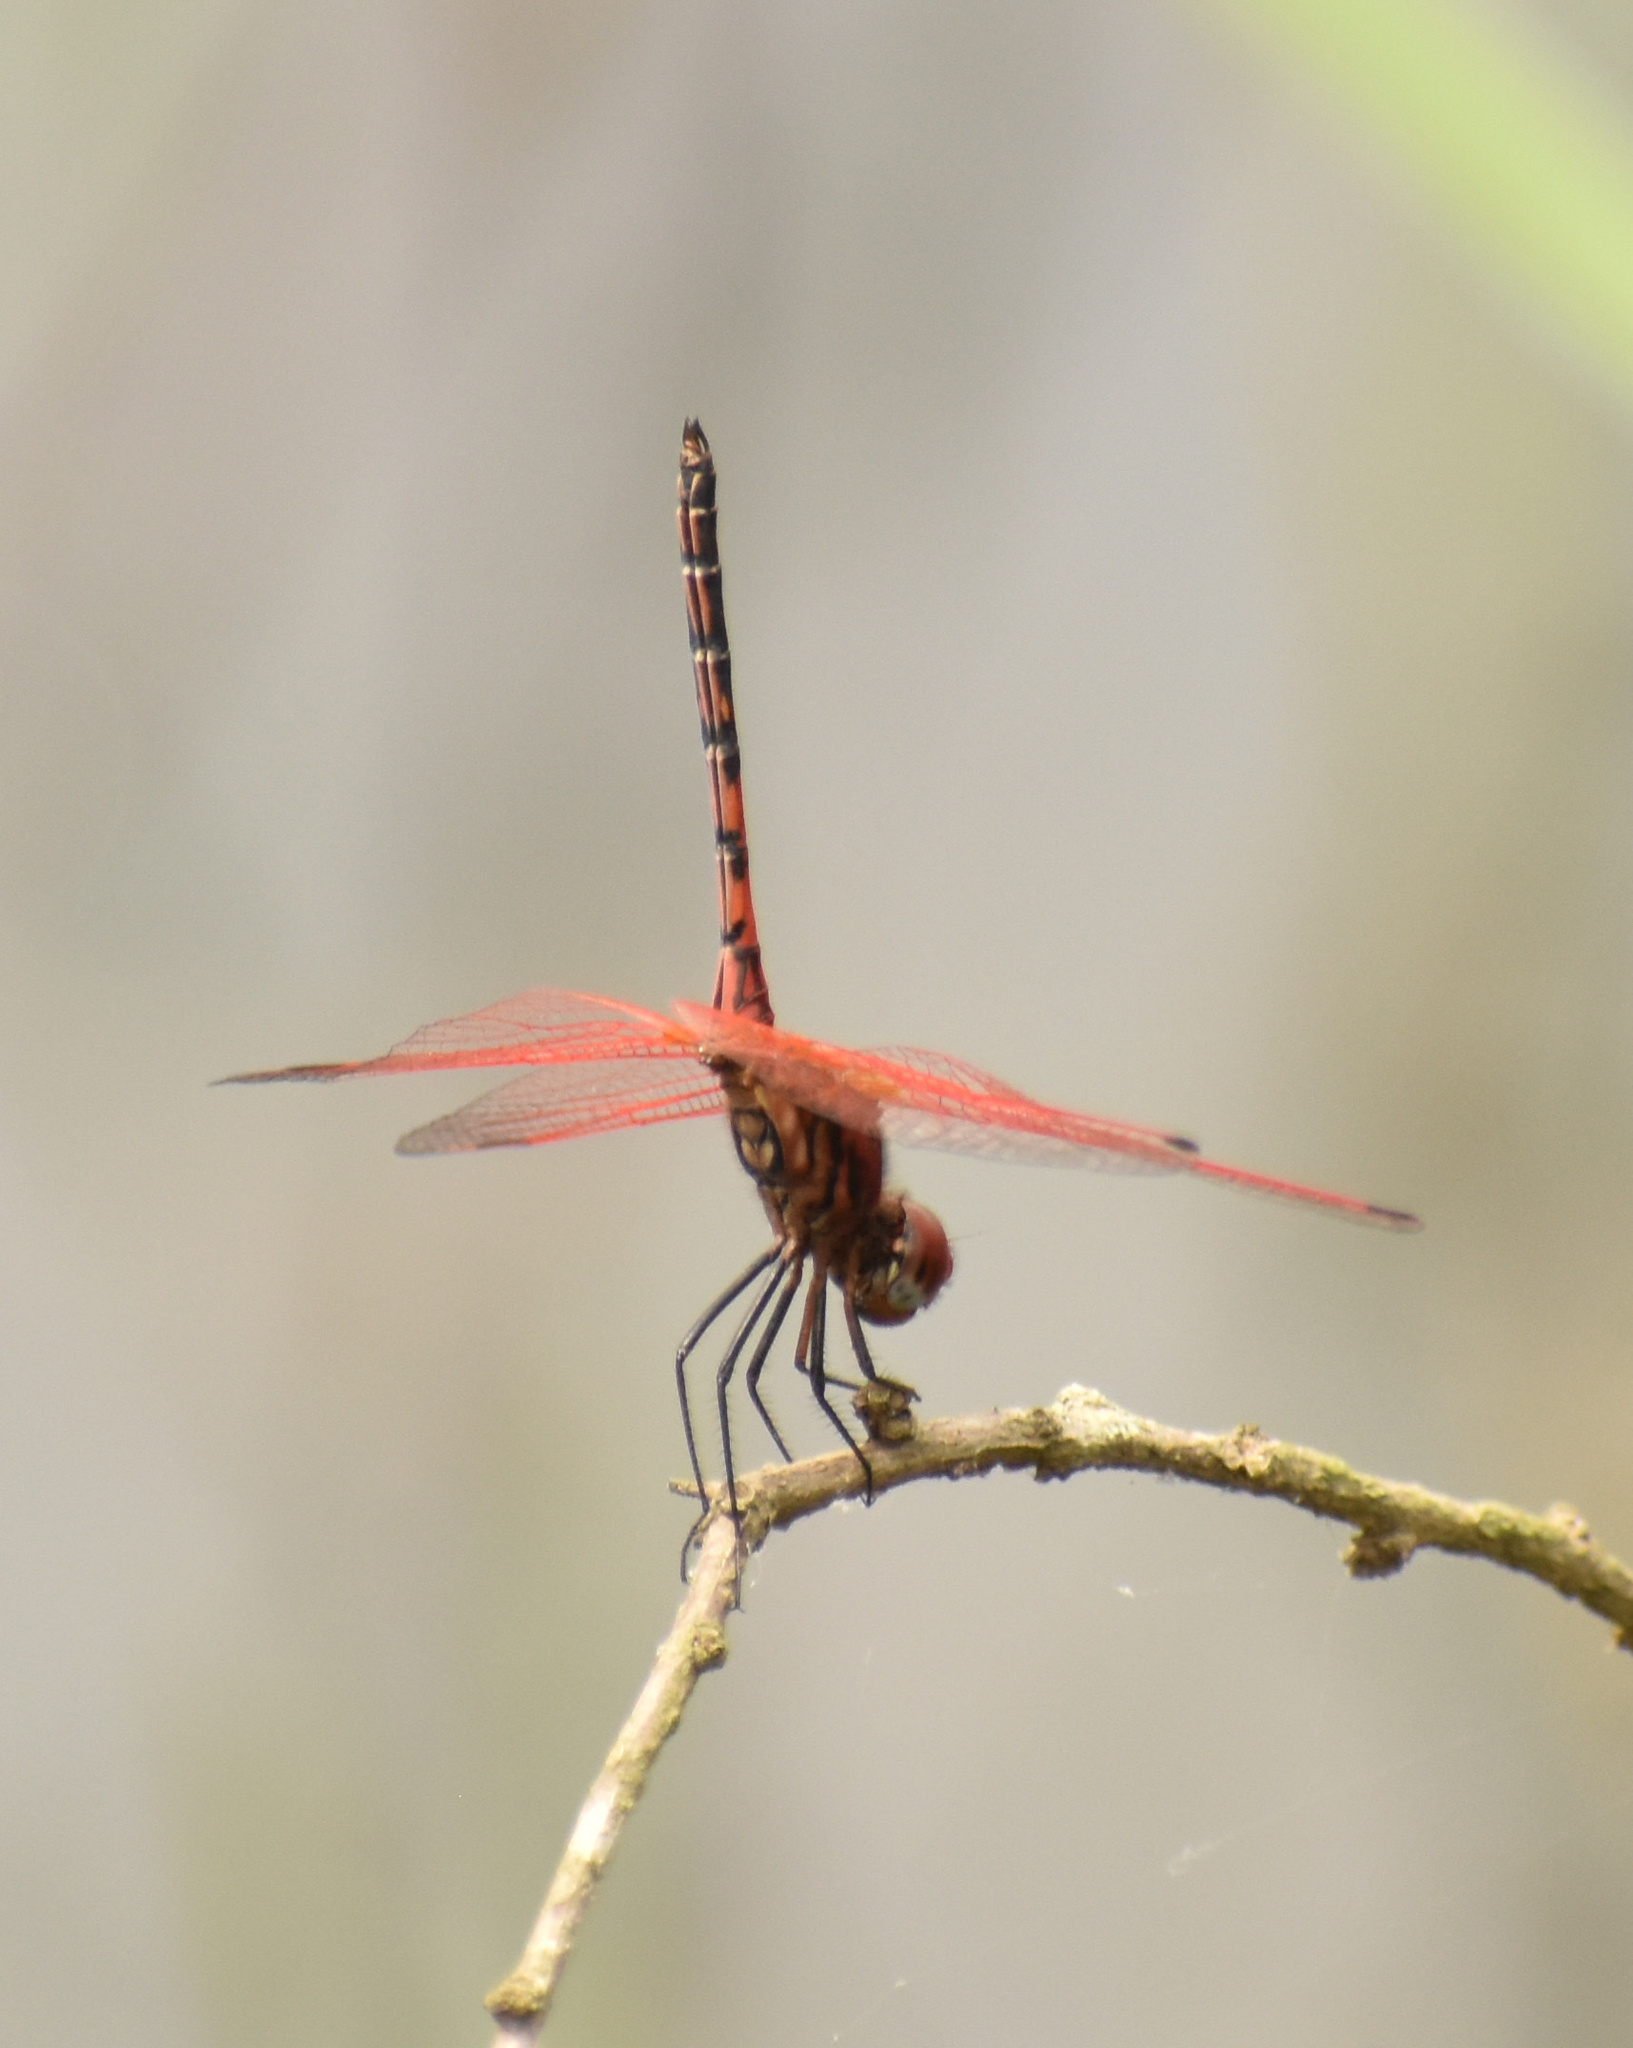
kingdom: Animalia
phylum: Arthropoda
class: Insecta
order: Odonata
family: Libellulidae
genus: Trithemis
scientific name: Trithemis arteriosa
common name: Red-veined dropwing
